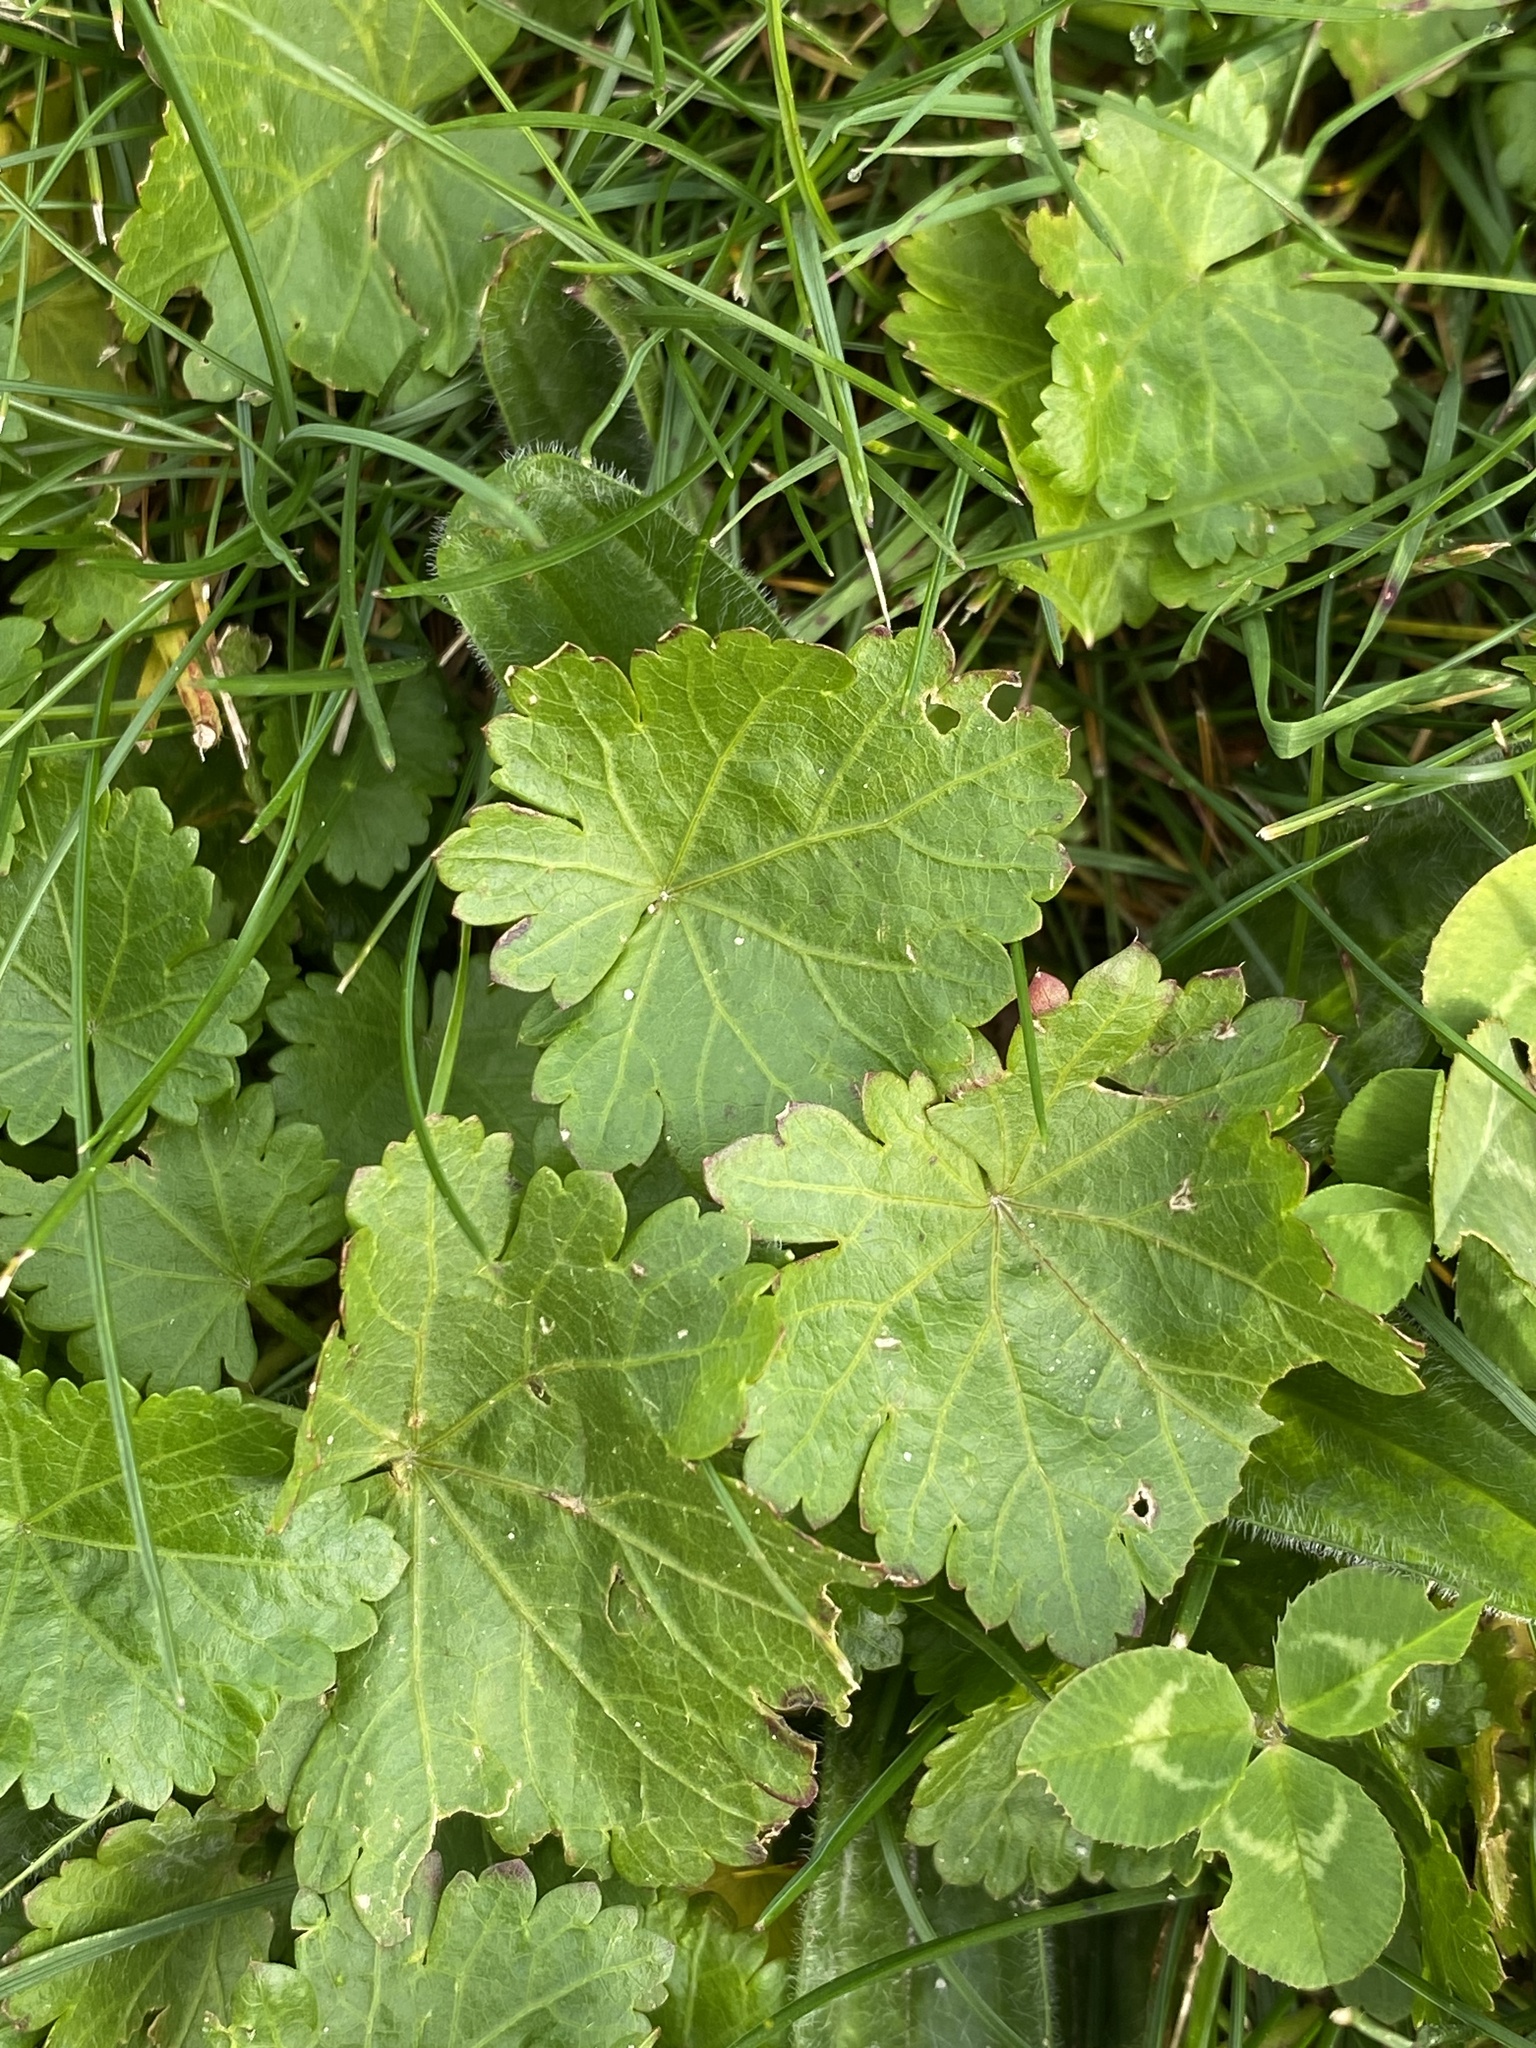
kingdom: Plantae
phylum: Tracheophyta
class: Magnoliopsida
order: Malvales
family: Malvaceae
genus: Modiola
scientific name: Modiola caroliniana
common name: Carolina bristlemallow
